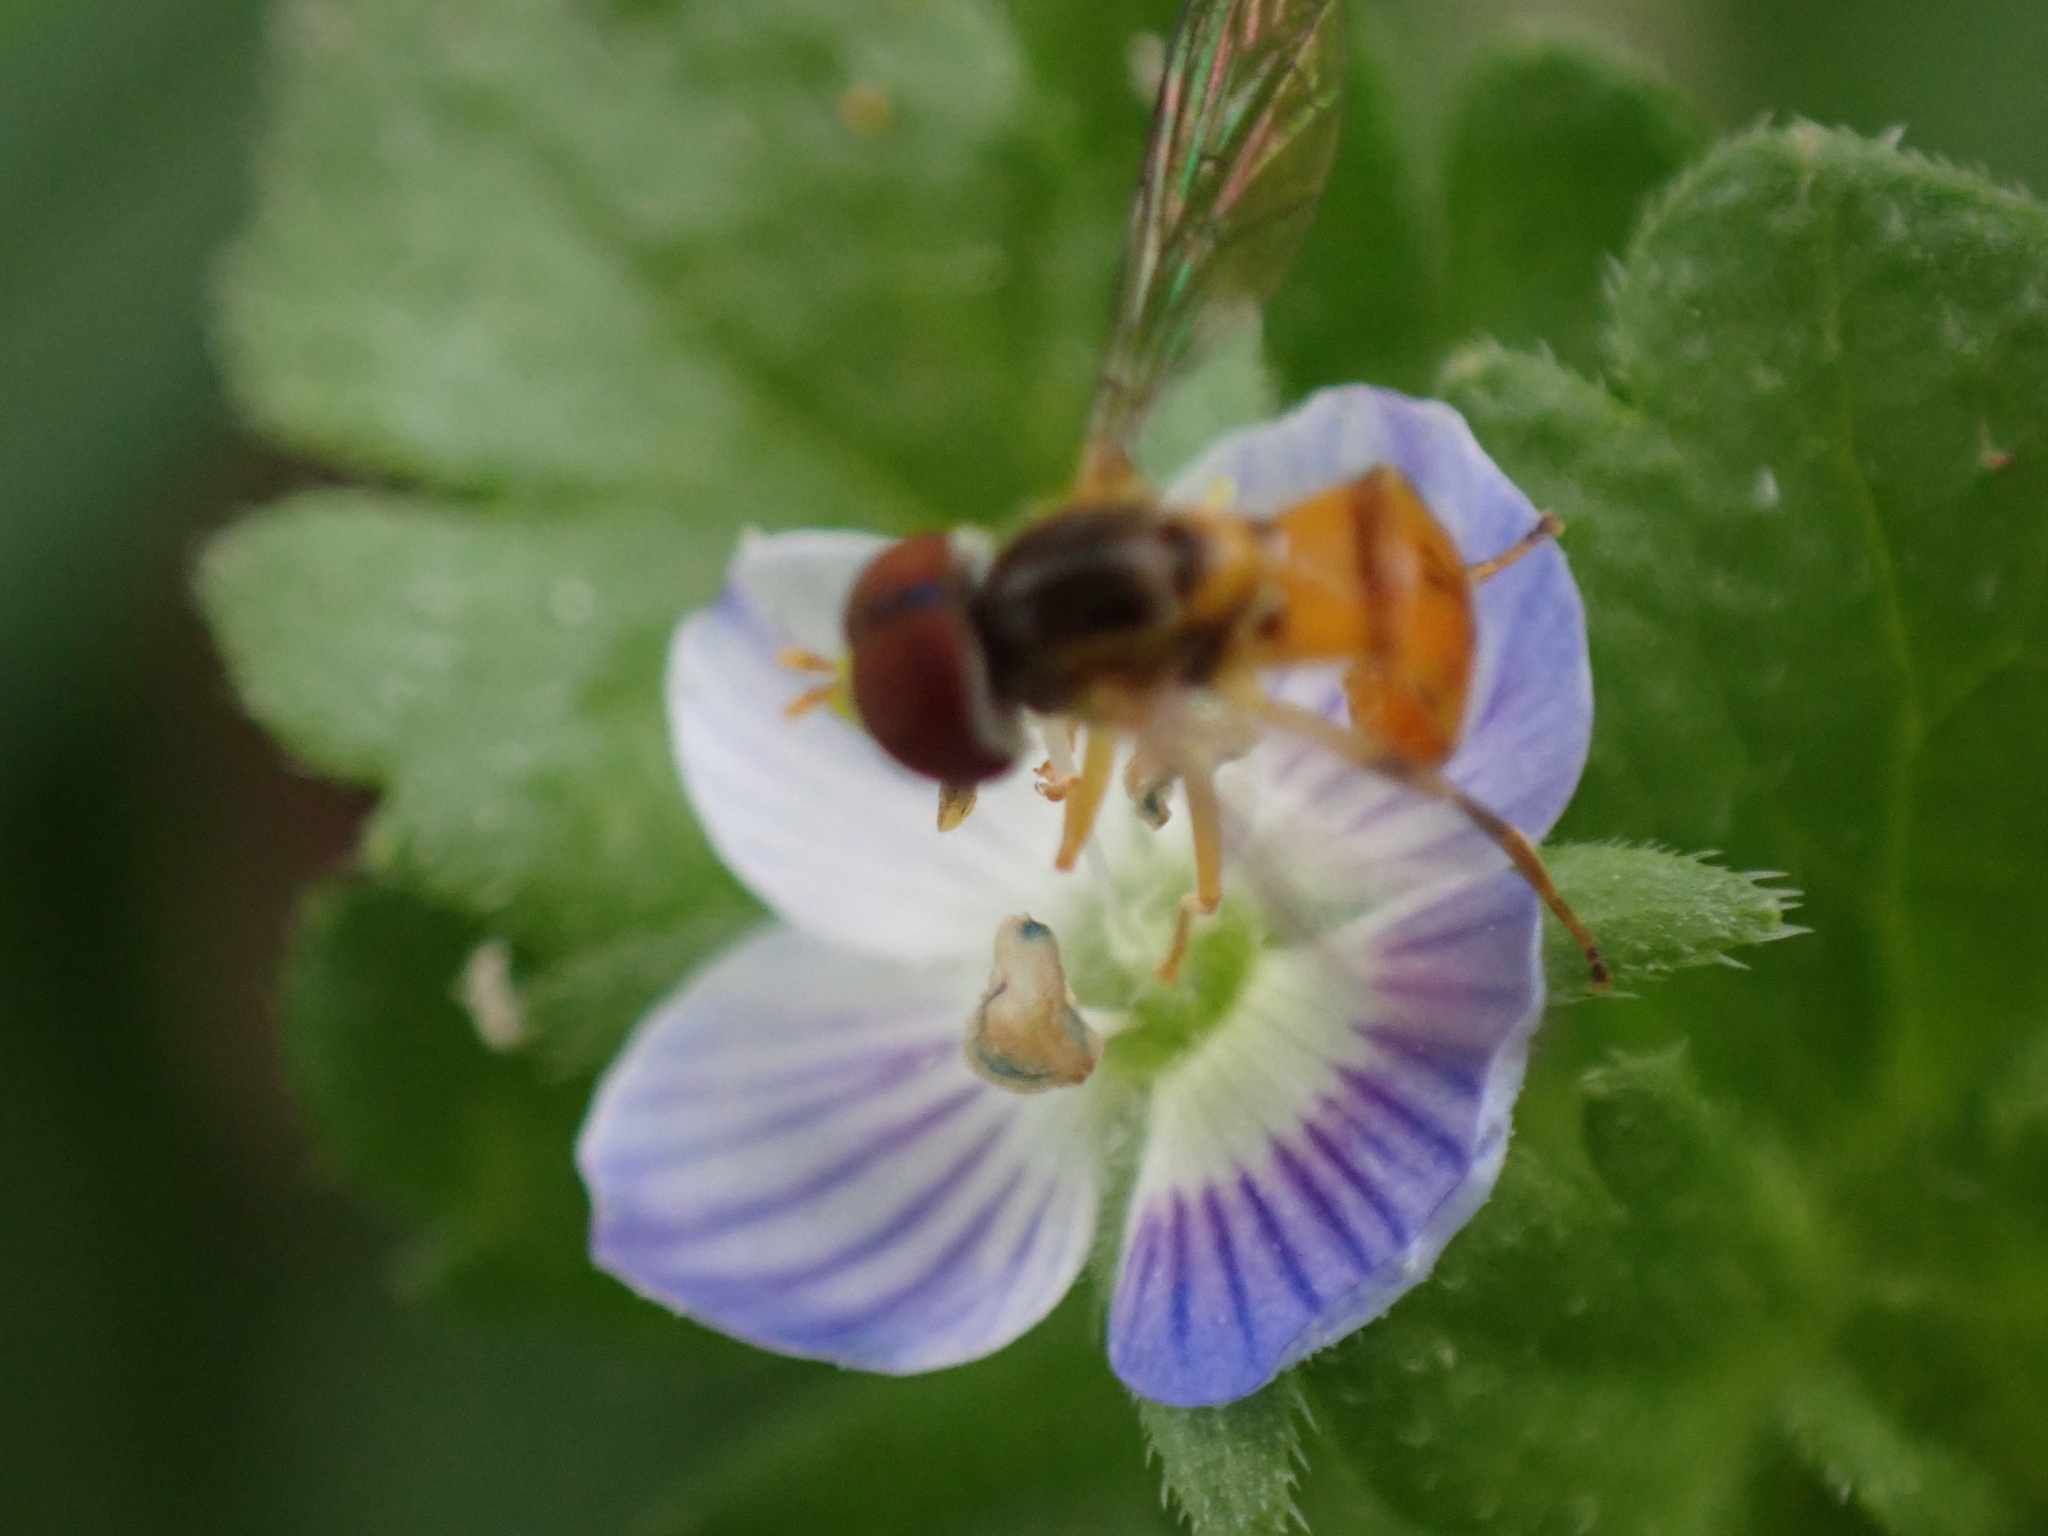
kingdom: Animalia
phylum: Arthropoda
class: Insecta
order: Diptera
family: Syrphidae
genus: Toxomerus
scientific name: Toxomerus boscii
